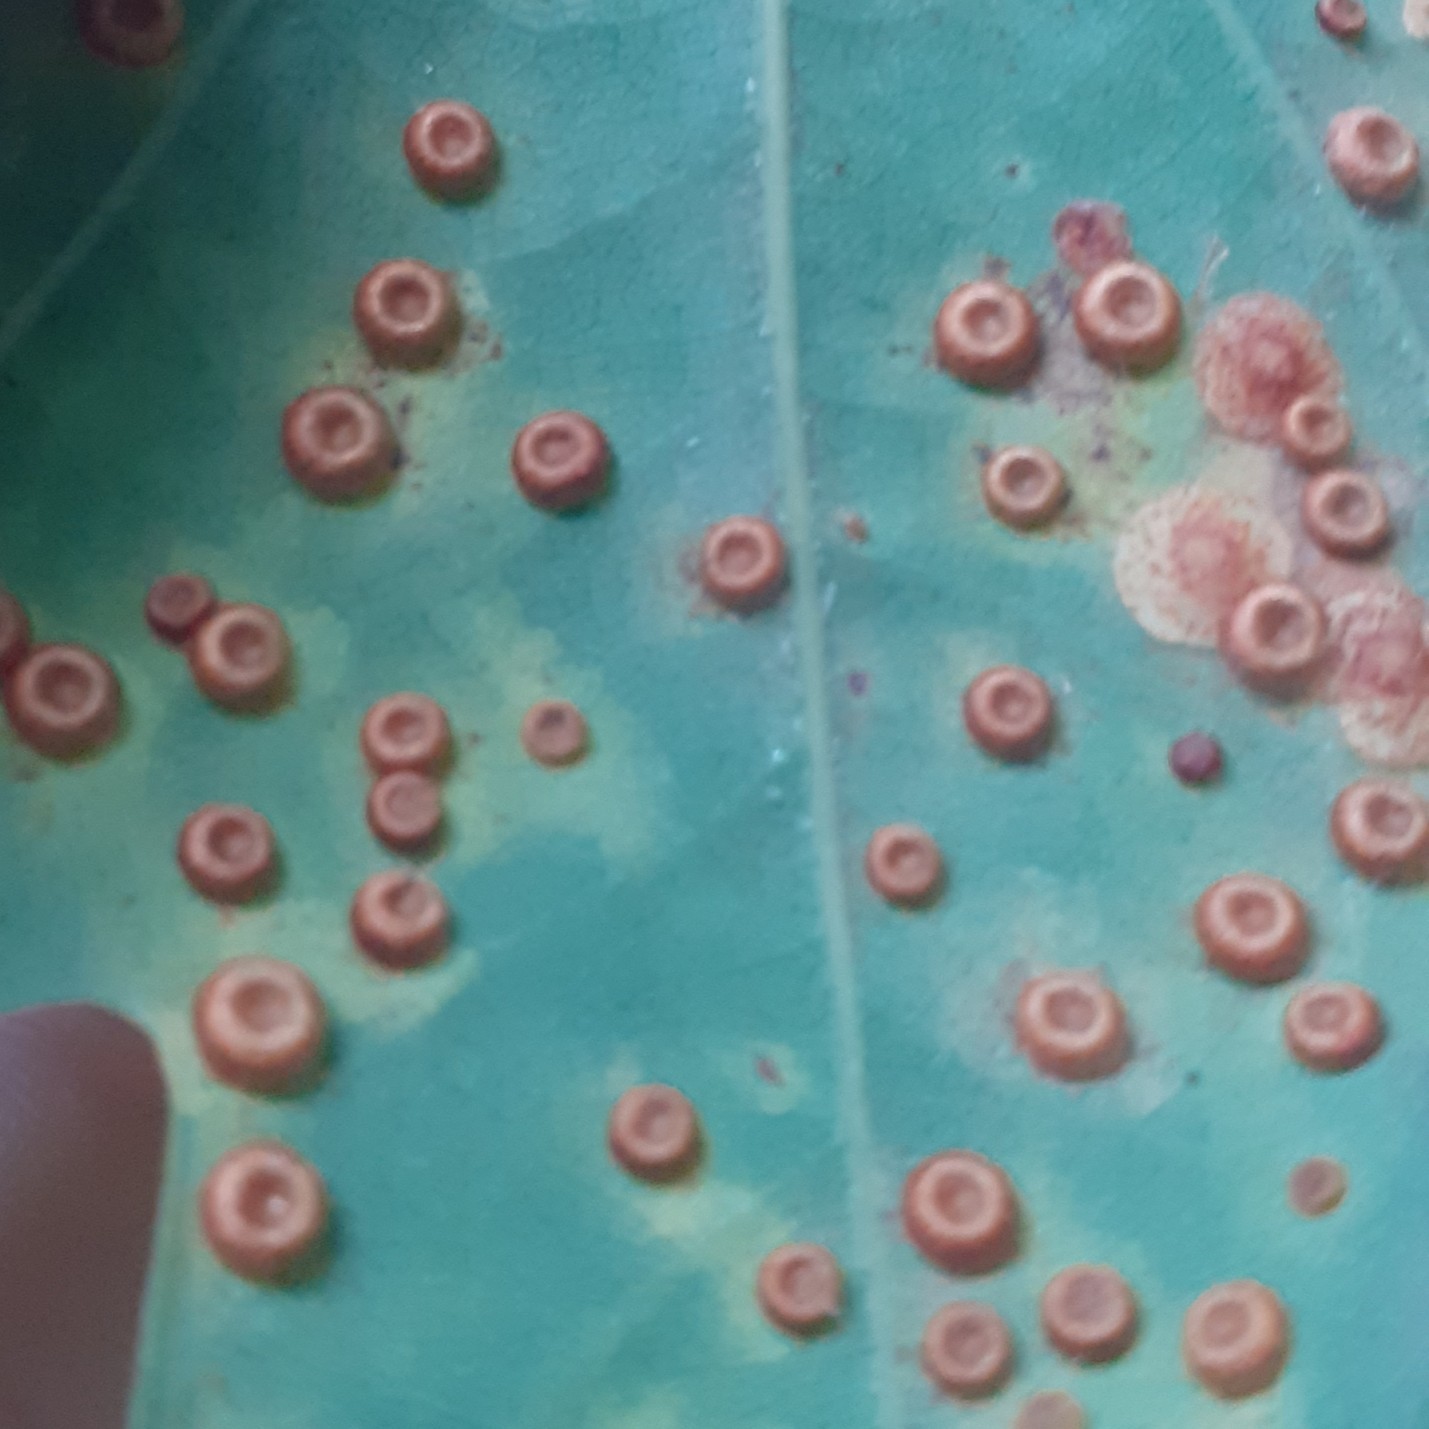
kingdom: Animalia
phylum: Arthropoda
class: Insecta
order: Hymenoptera
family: Cynipidae
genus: Neuroterus
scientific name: Neuroterus numismalis
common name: Silk-button spangle gall
